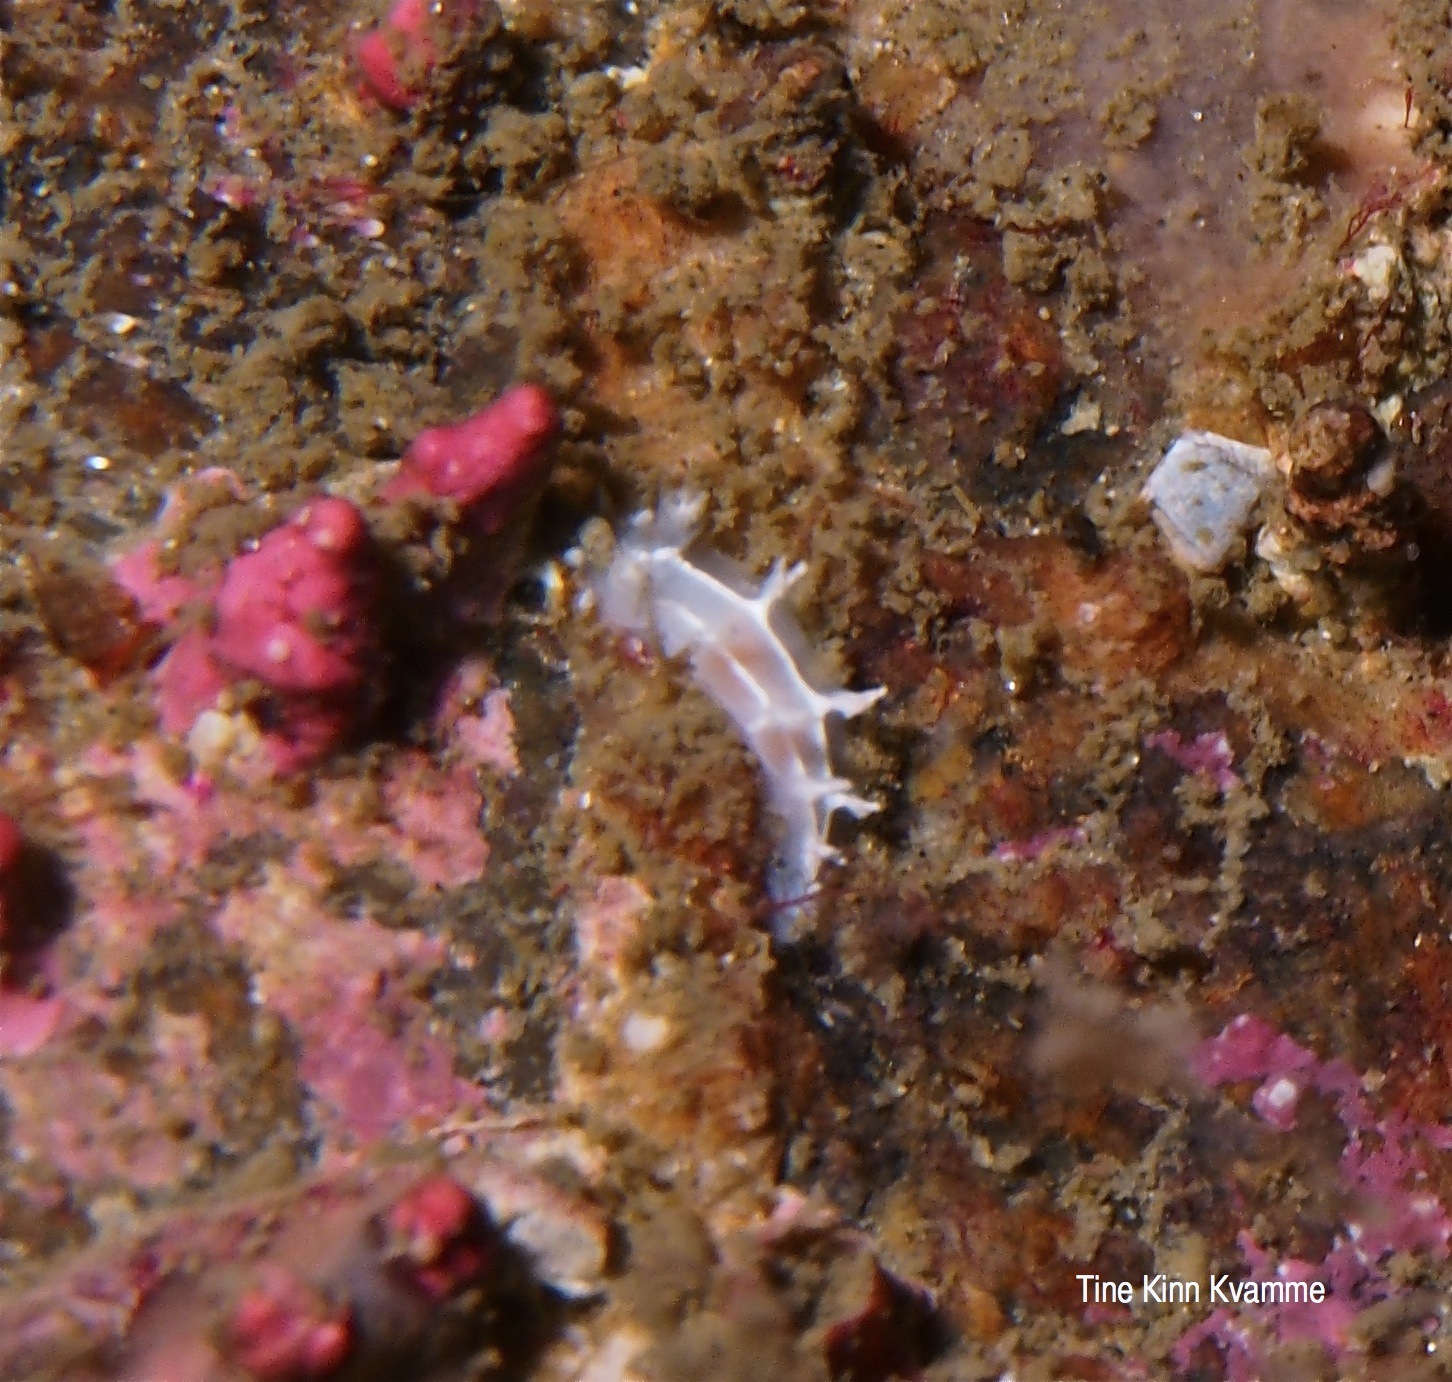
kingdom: Animalia
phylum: Mollusca
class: Gastropoda
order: Nudibranchia
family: Tritoniidae
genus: Duvaucelia
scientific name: Duvaucelia lineata
